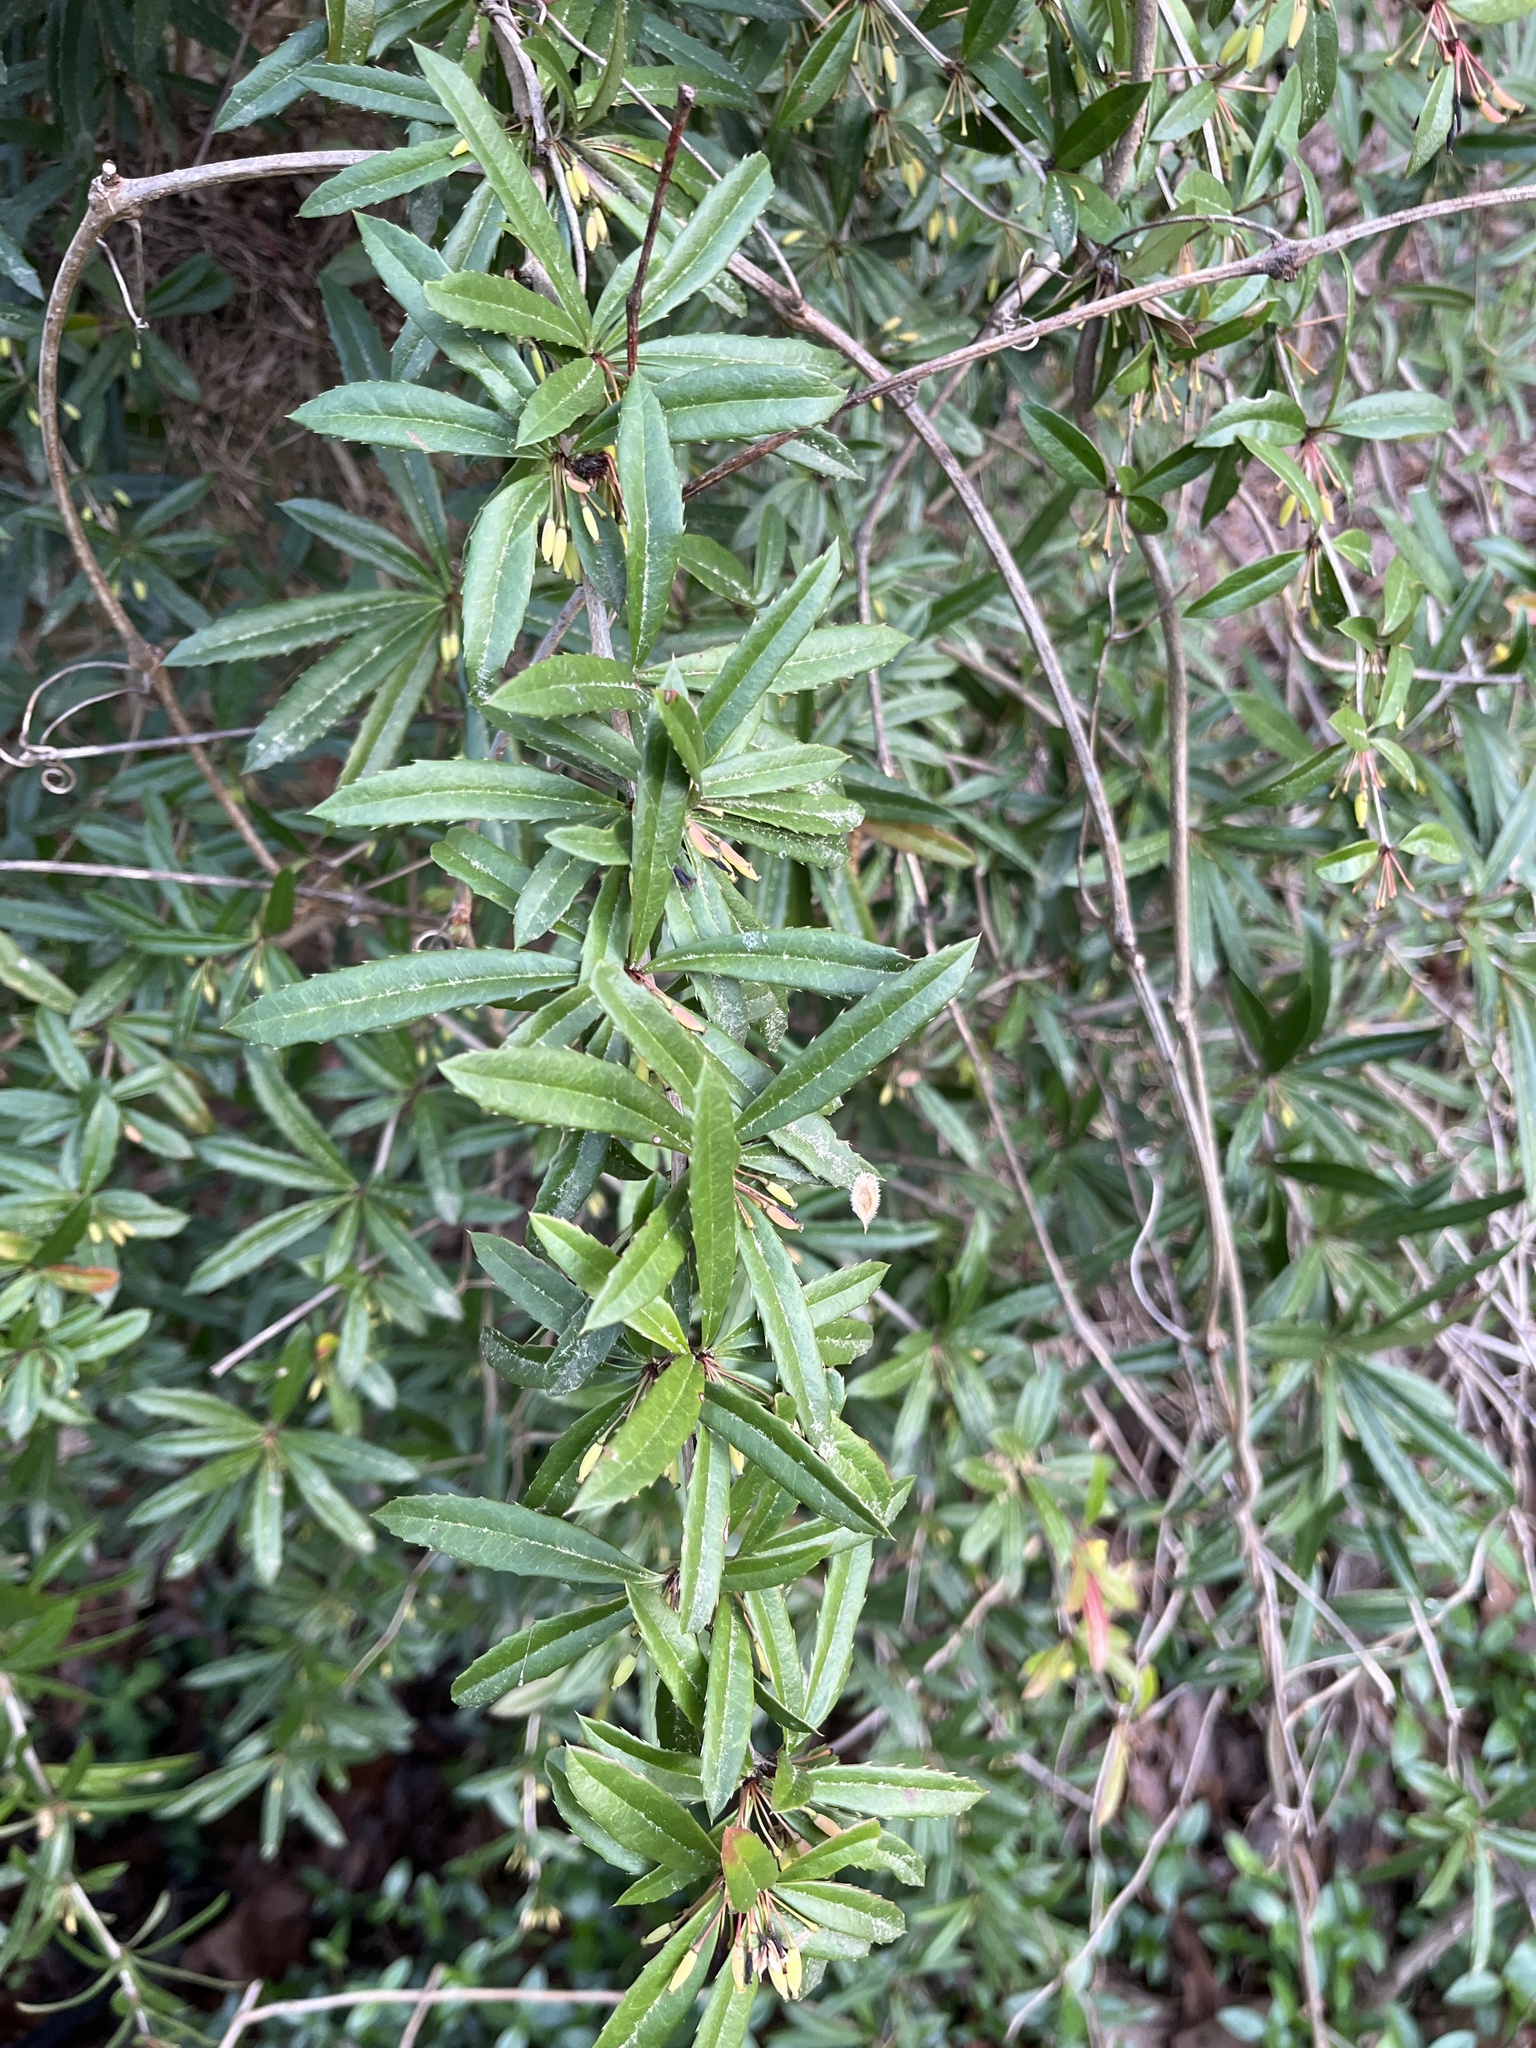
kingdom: Plantae
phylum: Tracheophyta
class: Magnoliopsida
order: Ranunculales
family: Berberidaceae
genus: Berberis
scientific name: Berberis julianae
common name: Wintergreen barberry
